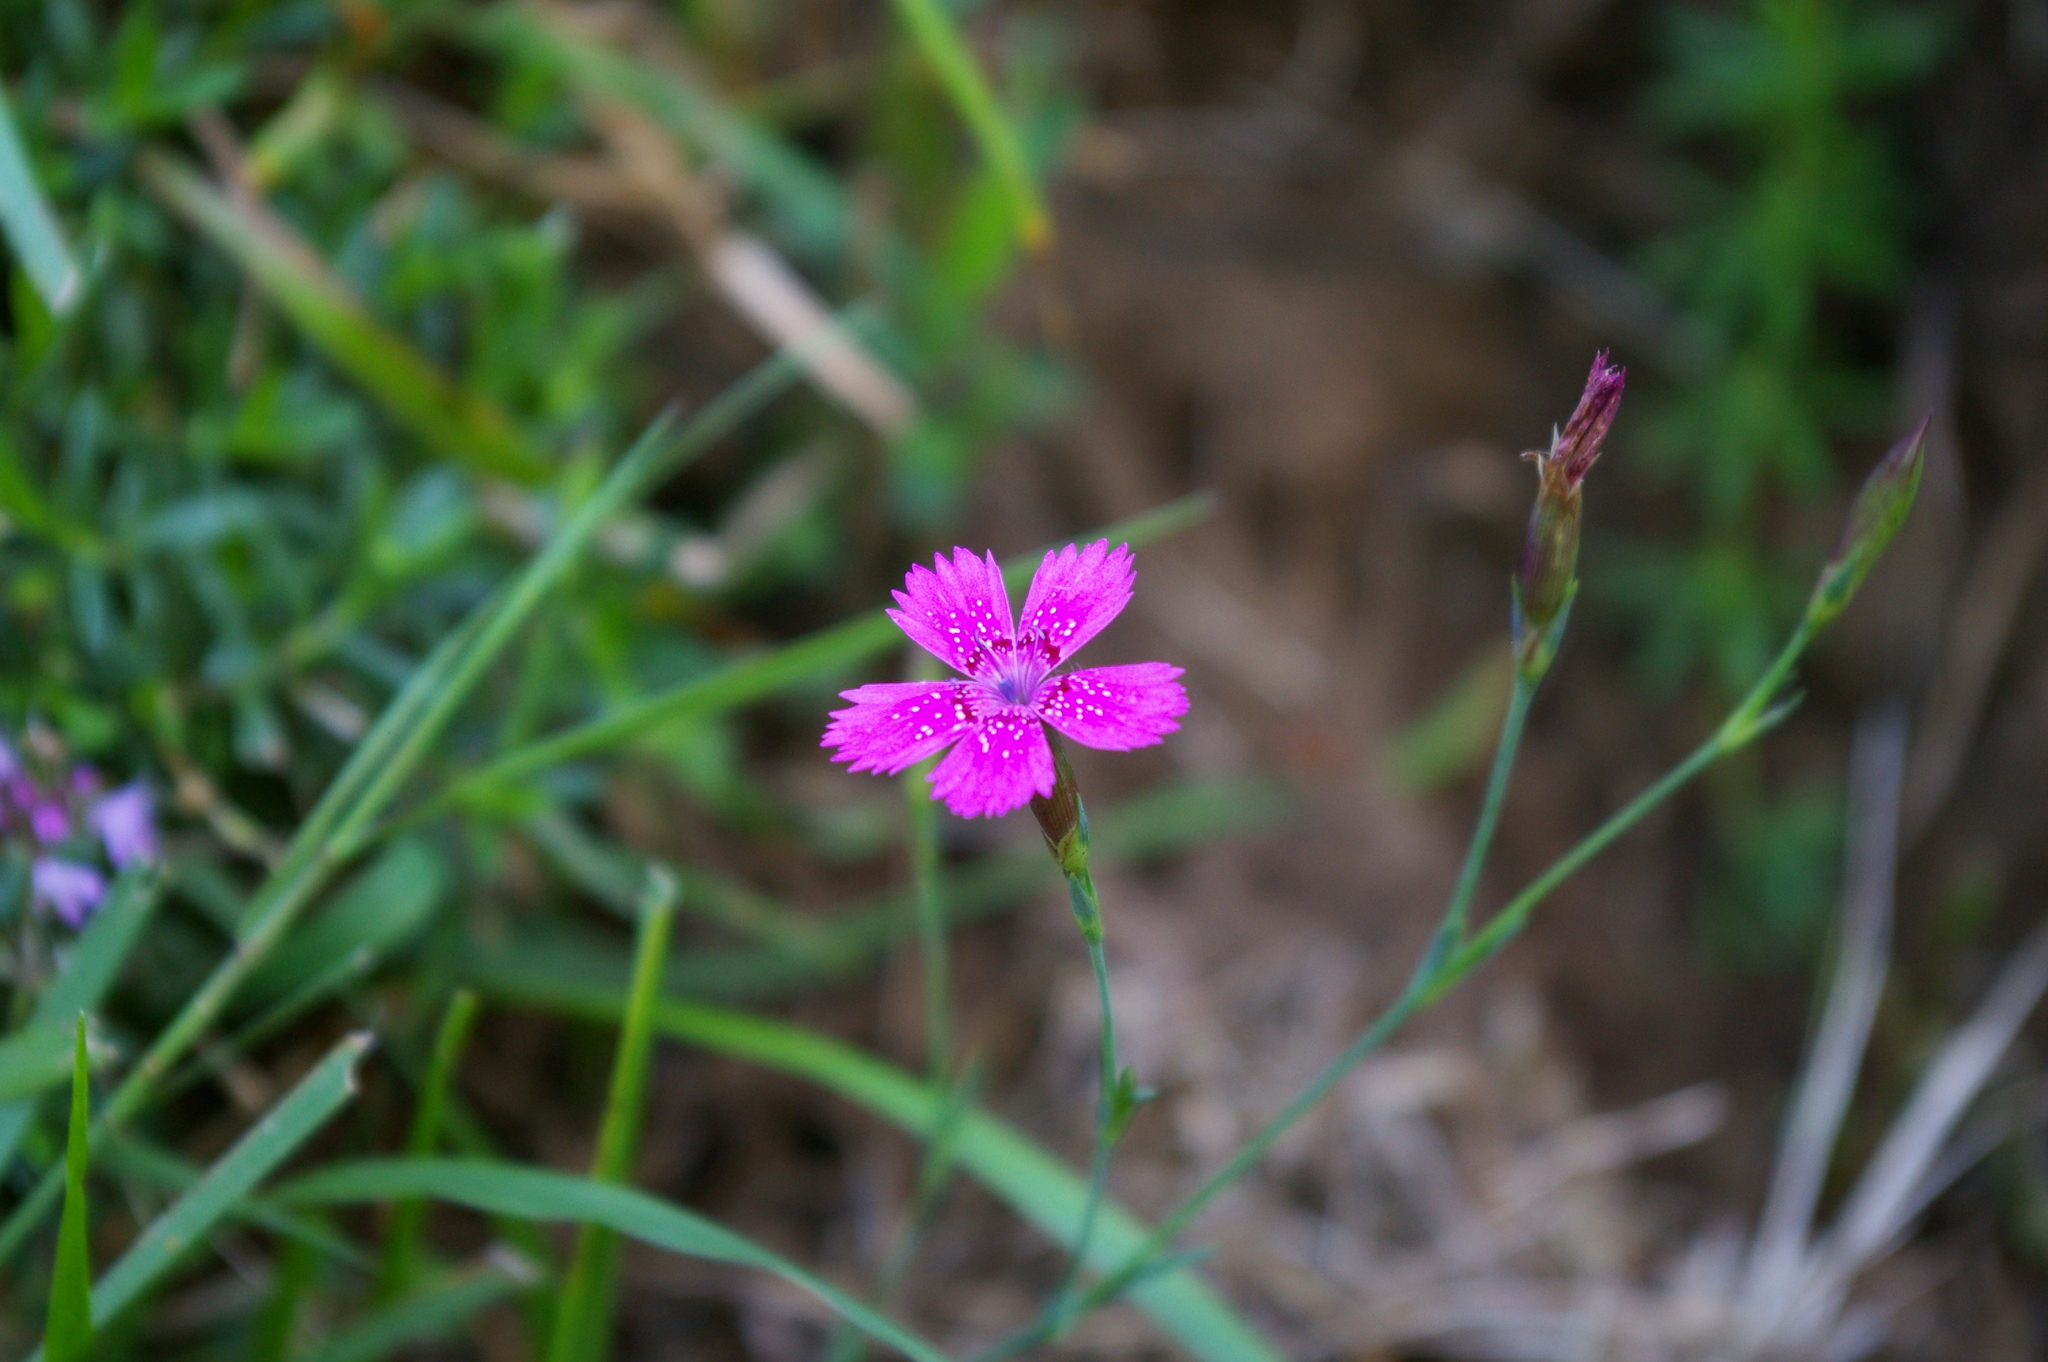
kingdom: Plantae
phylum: Tracheophyta
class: Magnoliopsida
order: Caryophyllales
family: Caryophyllaceae
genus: Dianthus
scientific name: Dianthus deltoides
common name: Maiden pink
